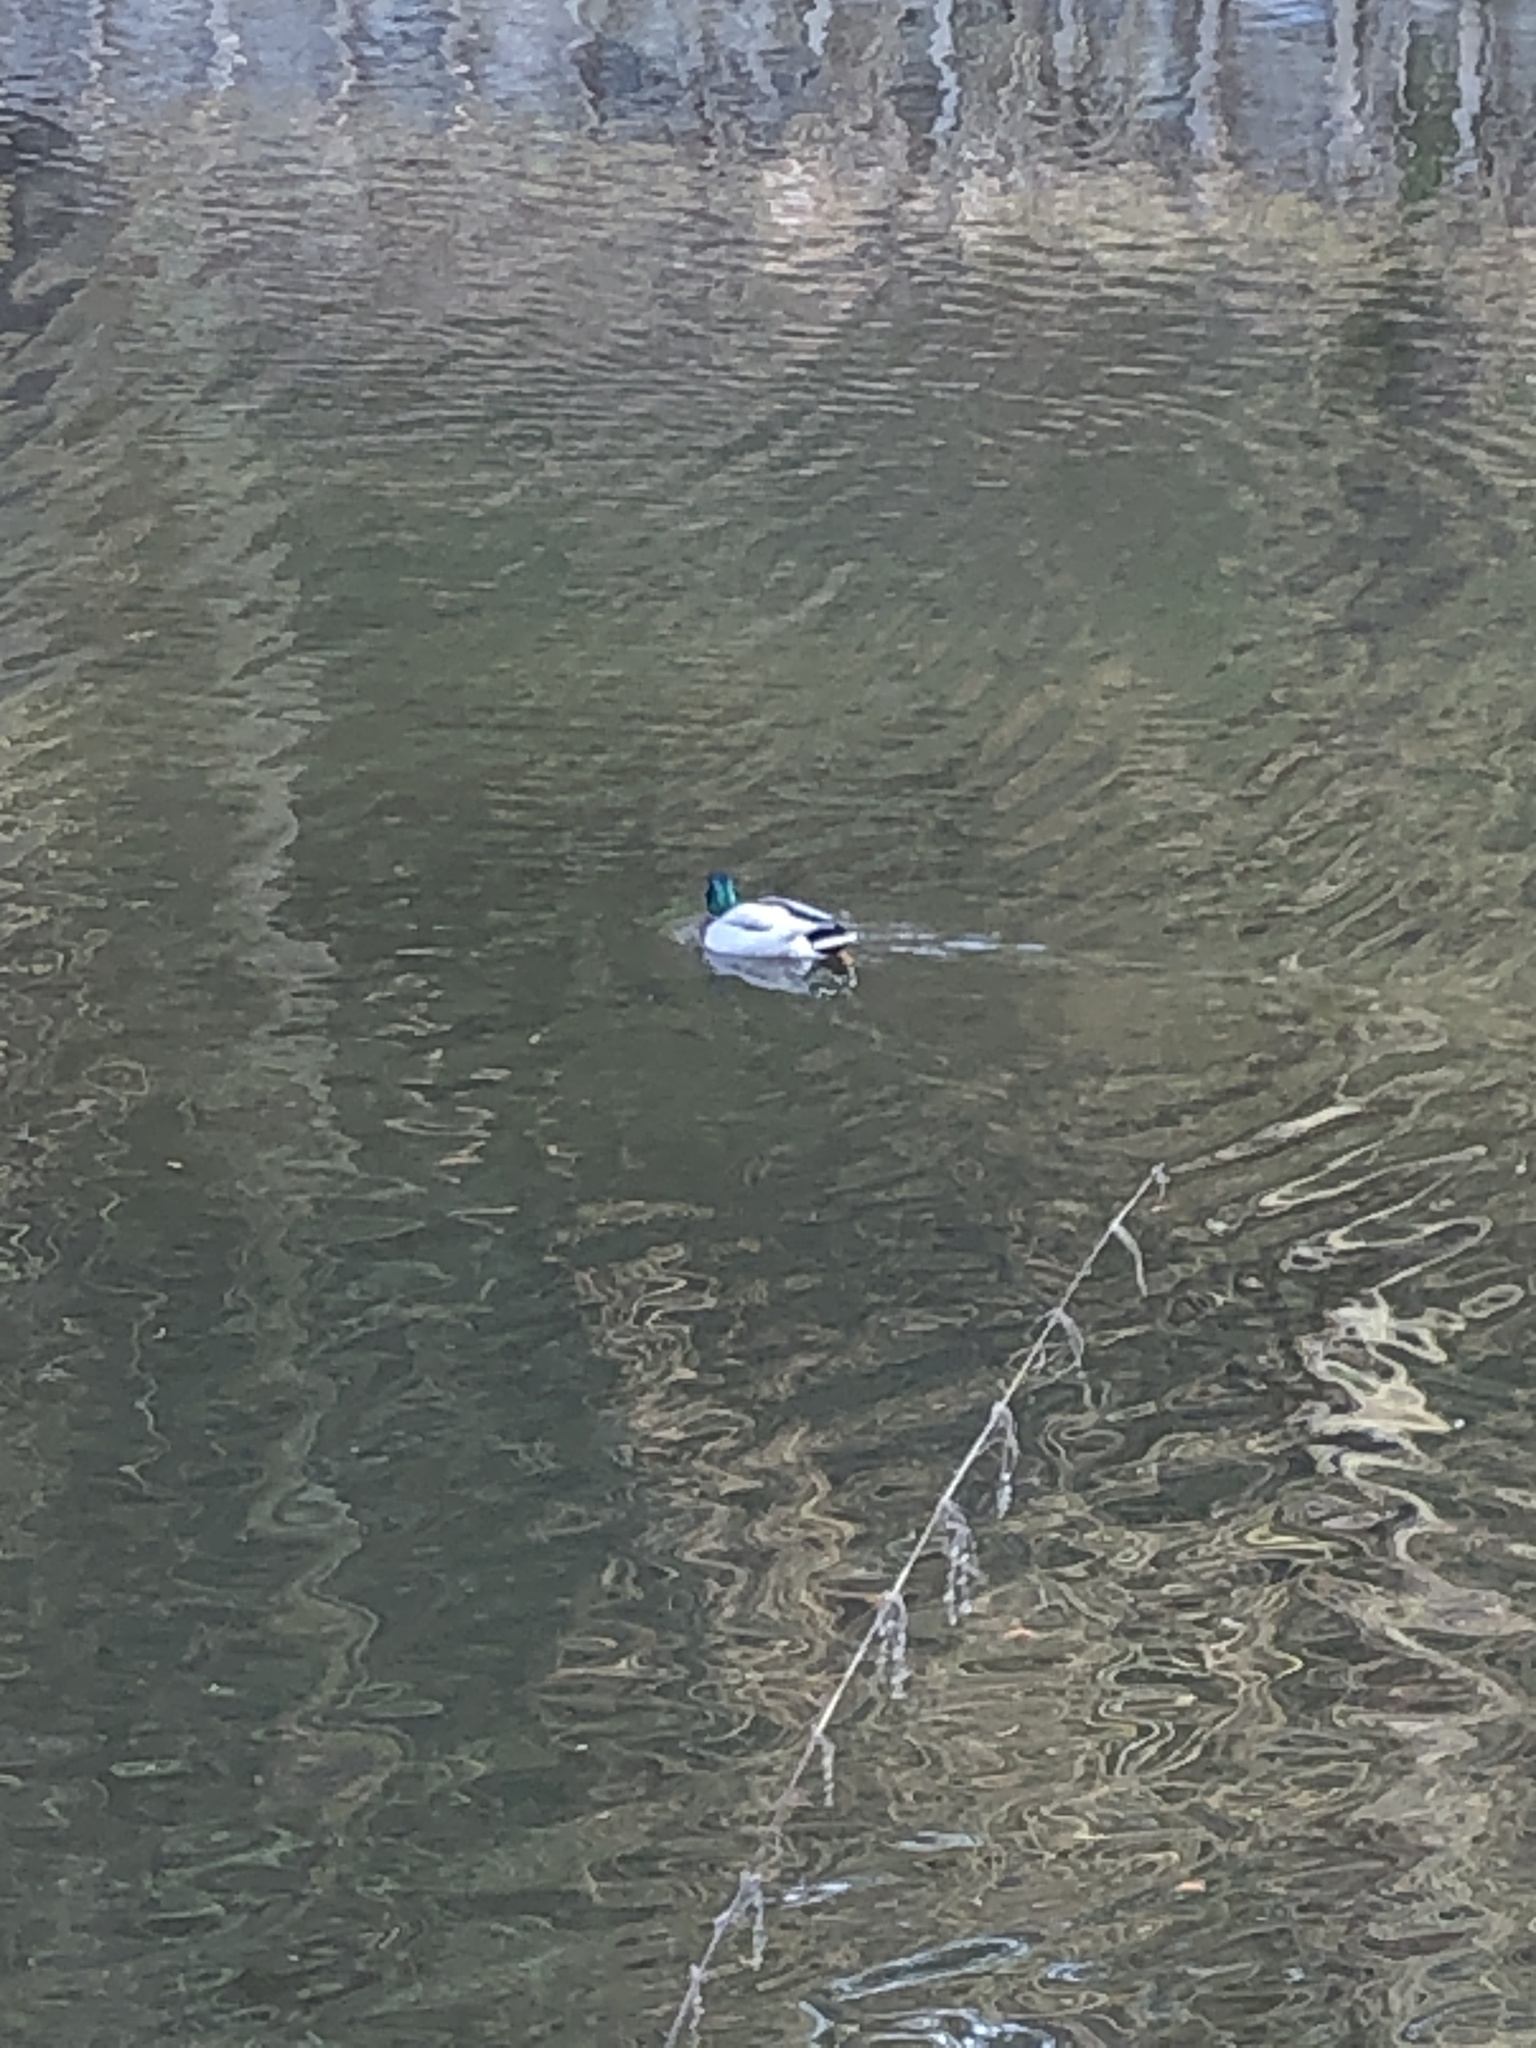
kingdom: Animalia
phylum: Chordata
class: Aves
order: Anseriformes
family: Anatidae
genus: Anas
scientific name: Anas platyrhynchos
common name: Mallard
